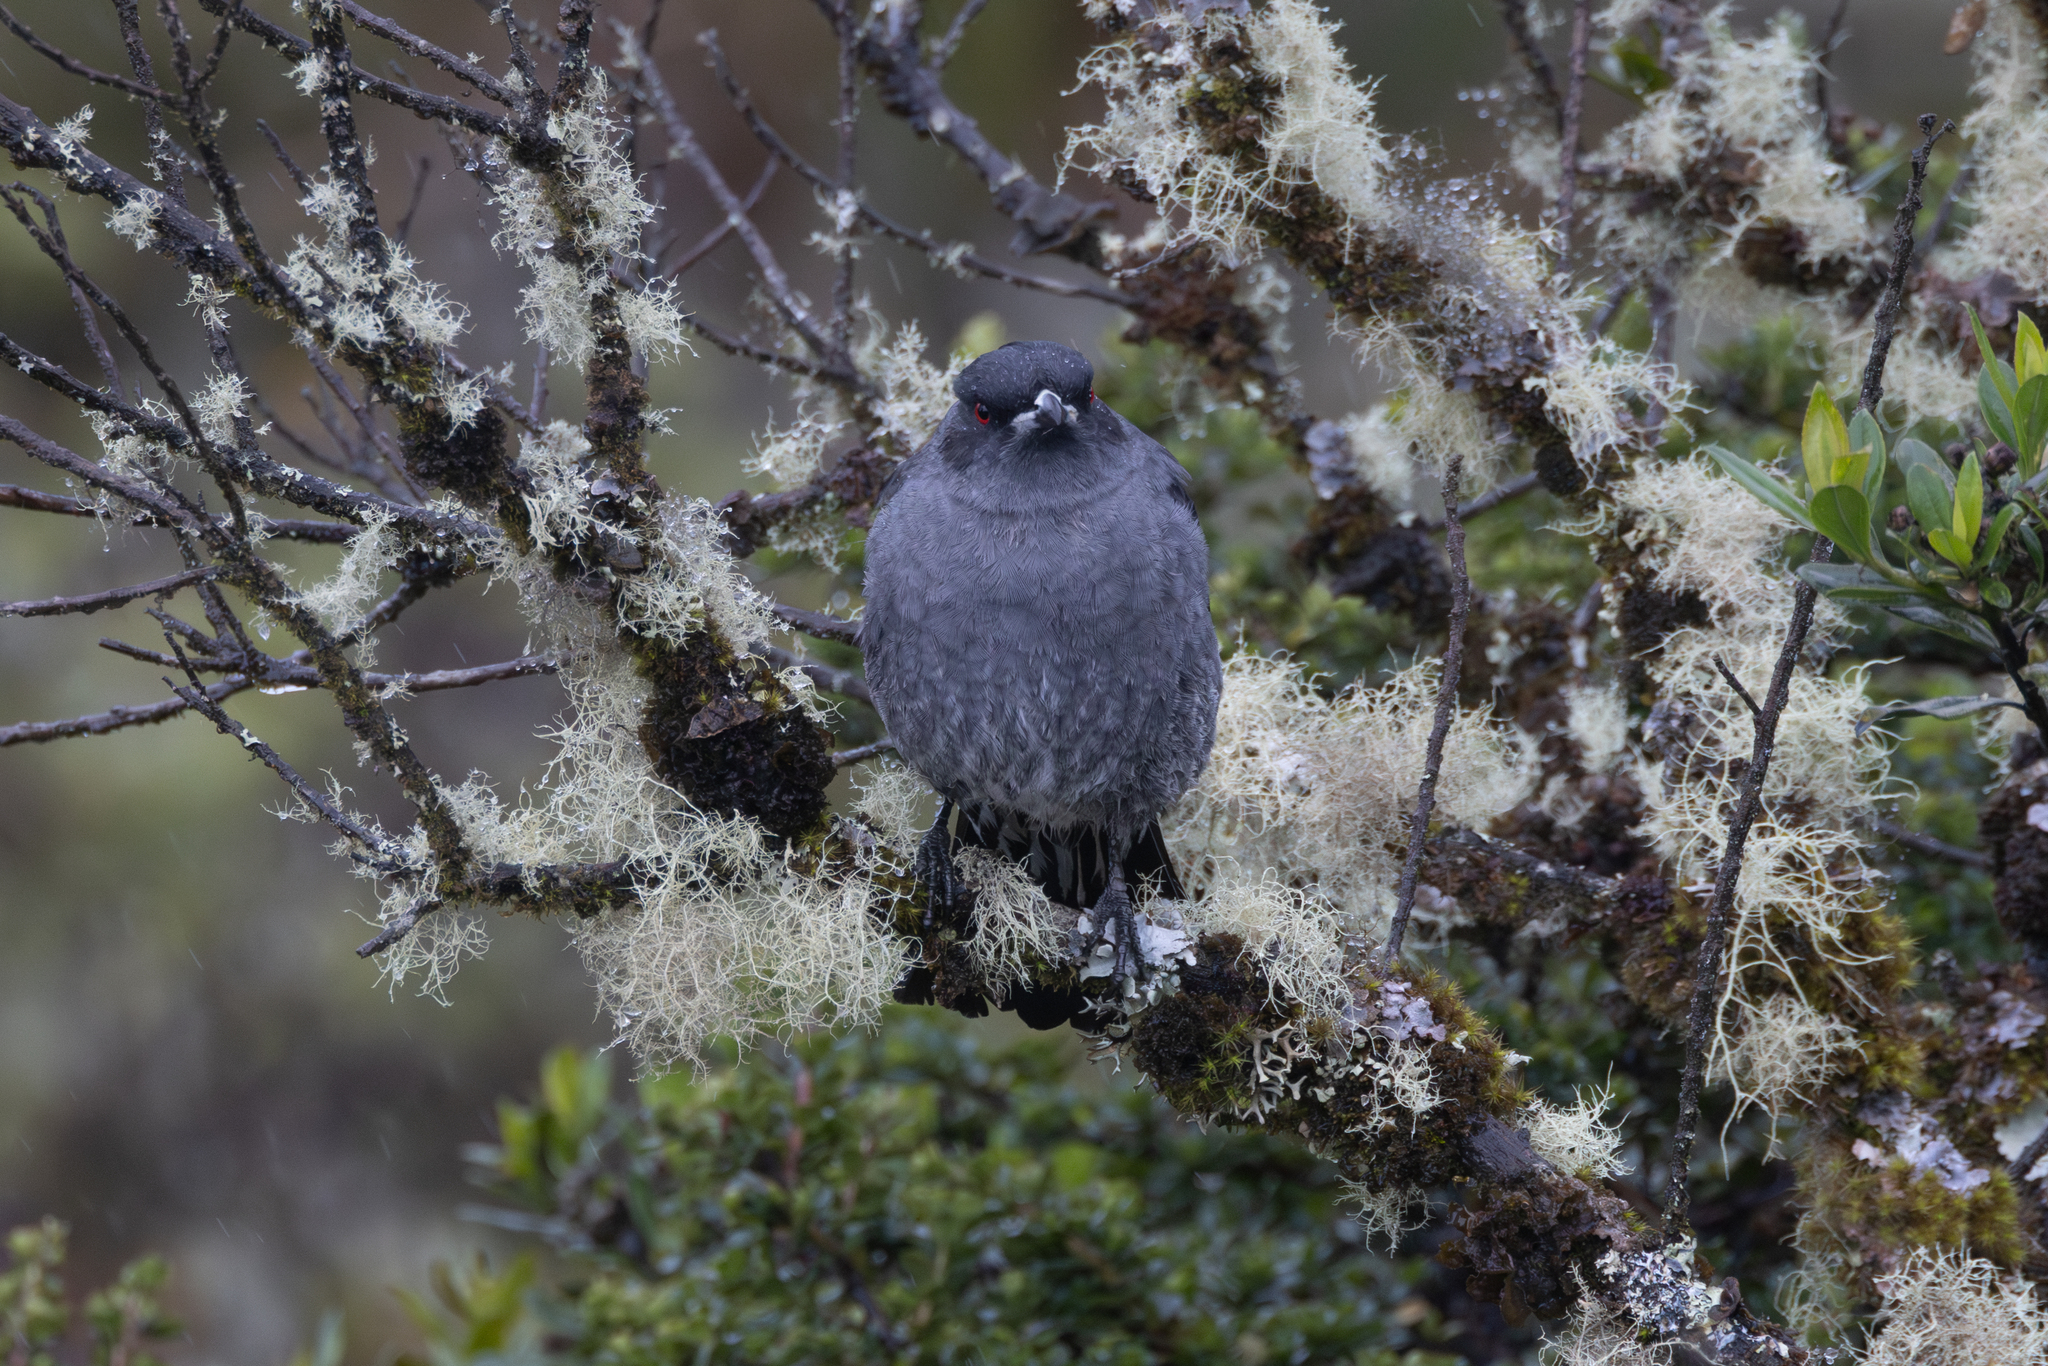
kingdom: Animalia
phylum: Chordata
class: Aves
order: Passeriformes
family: Cotingidae
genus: Ampelion
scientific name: Ampelion rubrocristatus
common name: Red-crested cotinga
